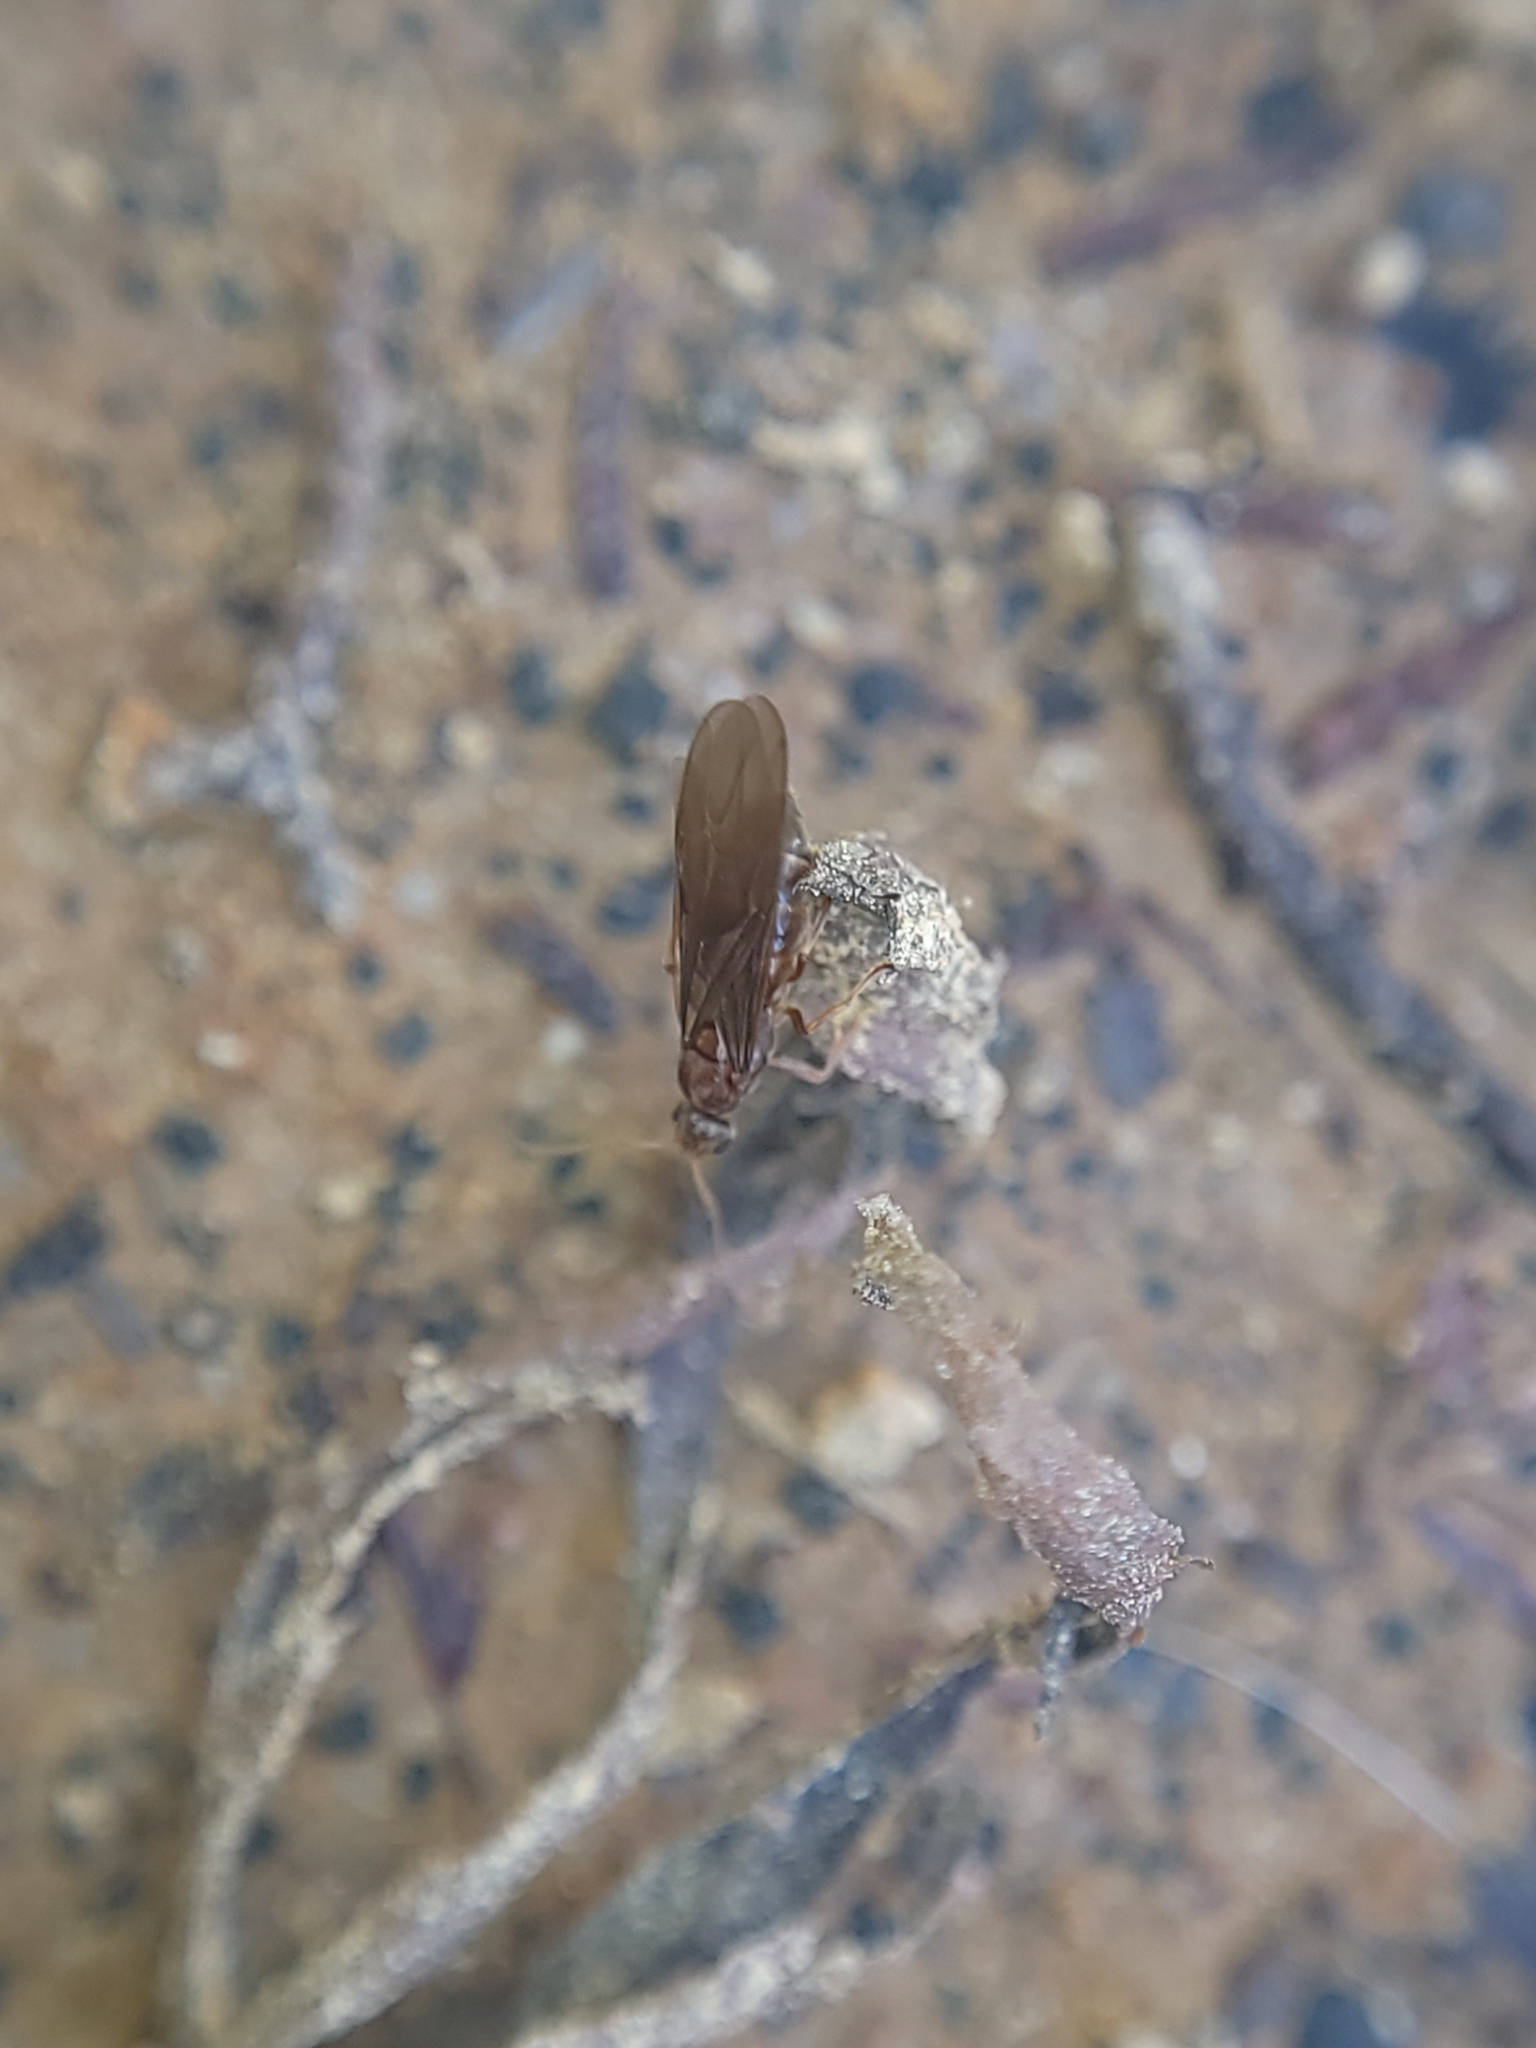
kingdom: Animalia
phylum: Arthropoda
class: Insecta
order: Hymenoptera
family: Formicidae
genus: Prenolepis
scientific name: Prenolepis imparis
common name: Small honey ant
